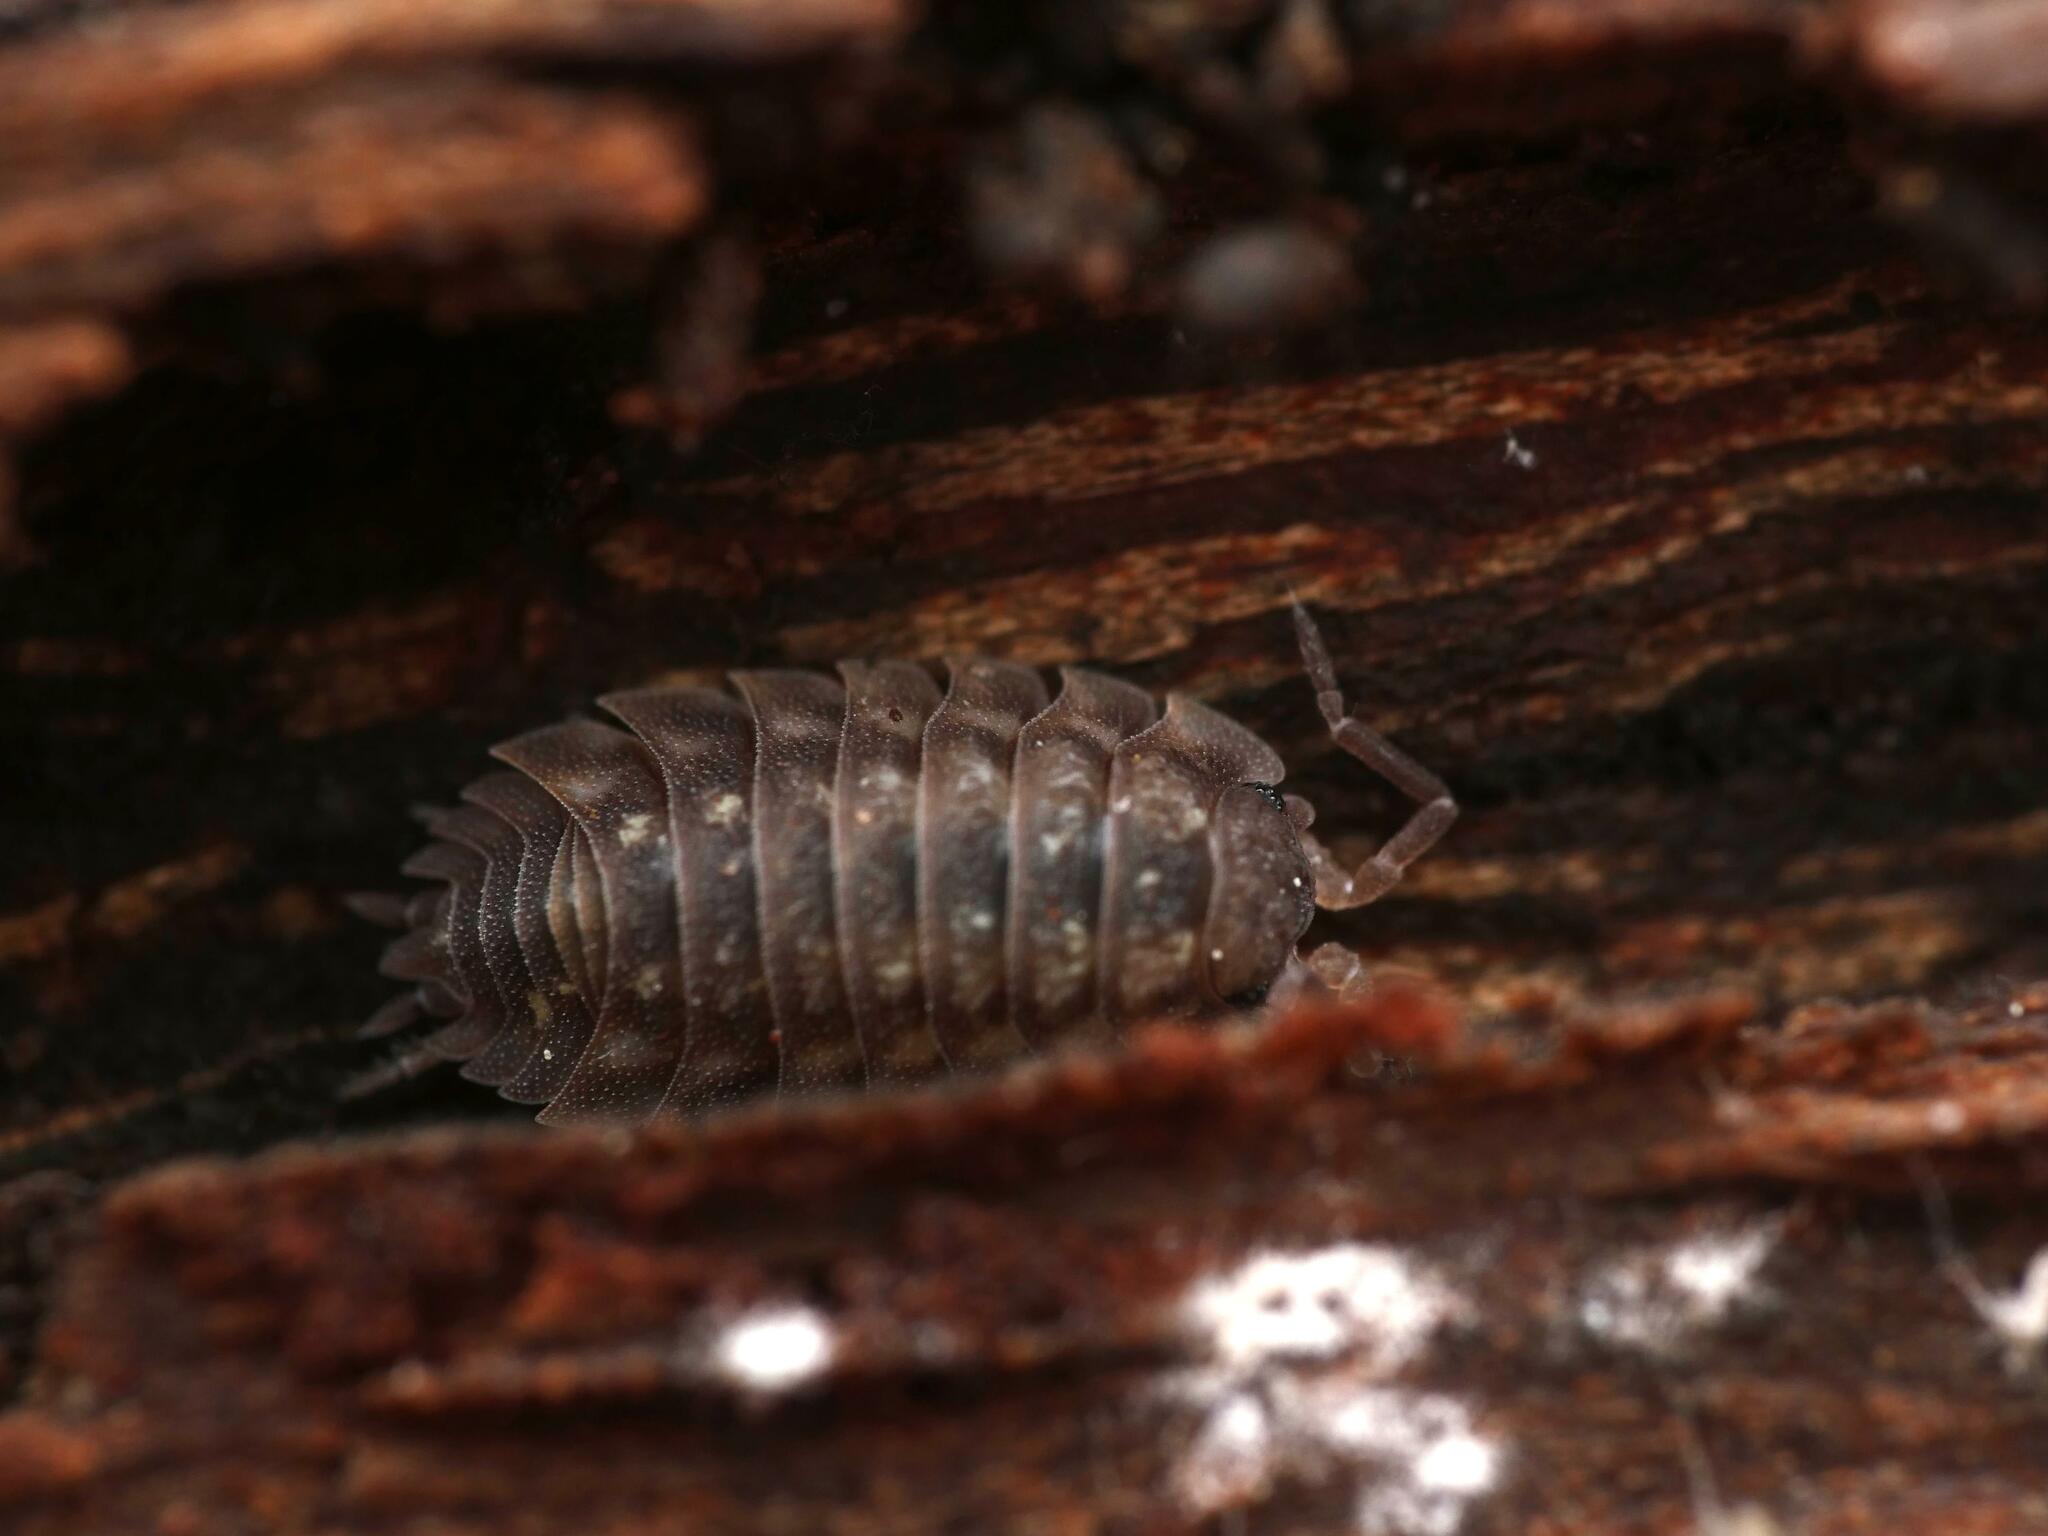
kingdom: Animalia
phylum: Arthropoda
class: Malacostraca
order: Isopoda
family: Oniscidae
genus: Oniscus
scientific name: Oniscus asellus
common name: Common shiny woodlouse
